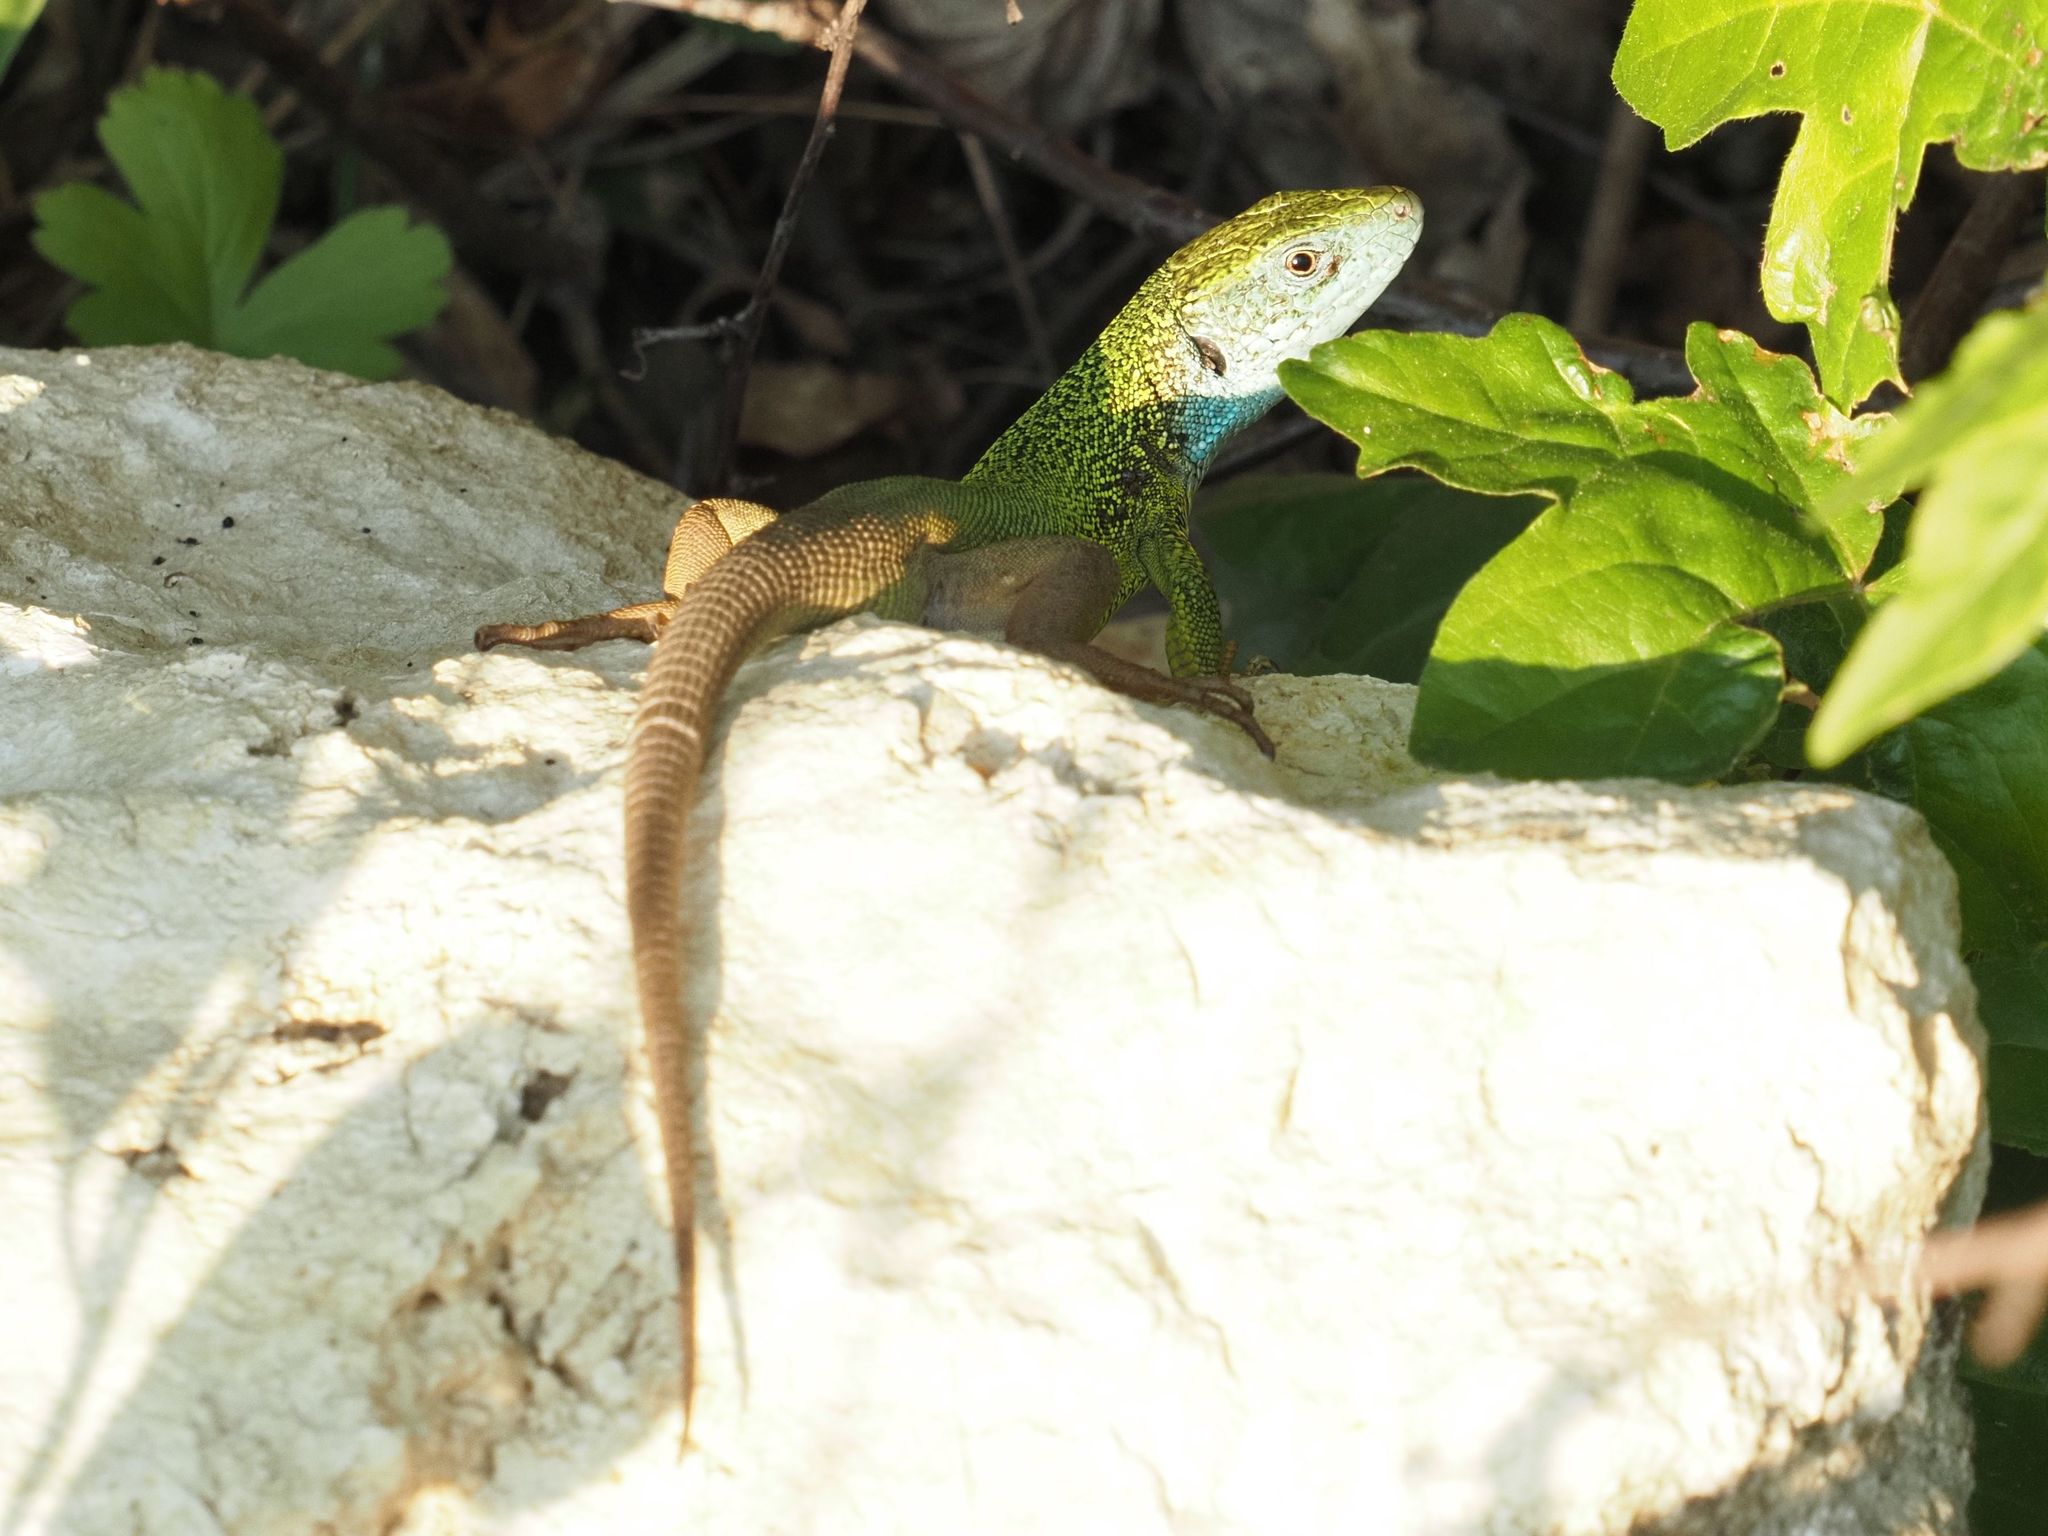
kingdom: Animalia
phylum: Chordata
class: Squamata
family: Lacertidae
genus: Lacerta
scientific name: Lacerta viridis
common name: European green lizard
